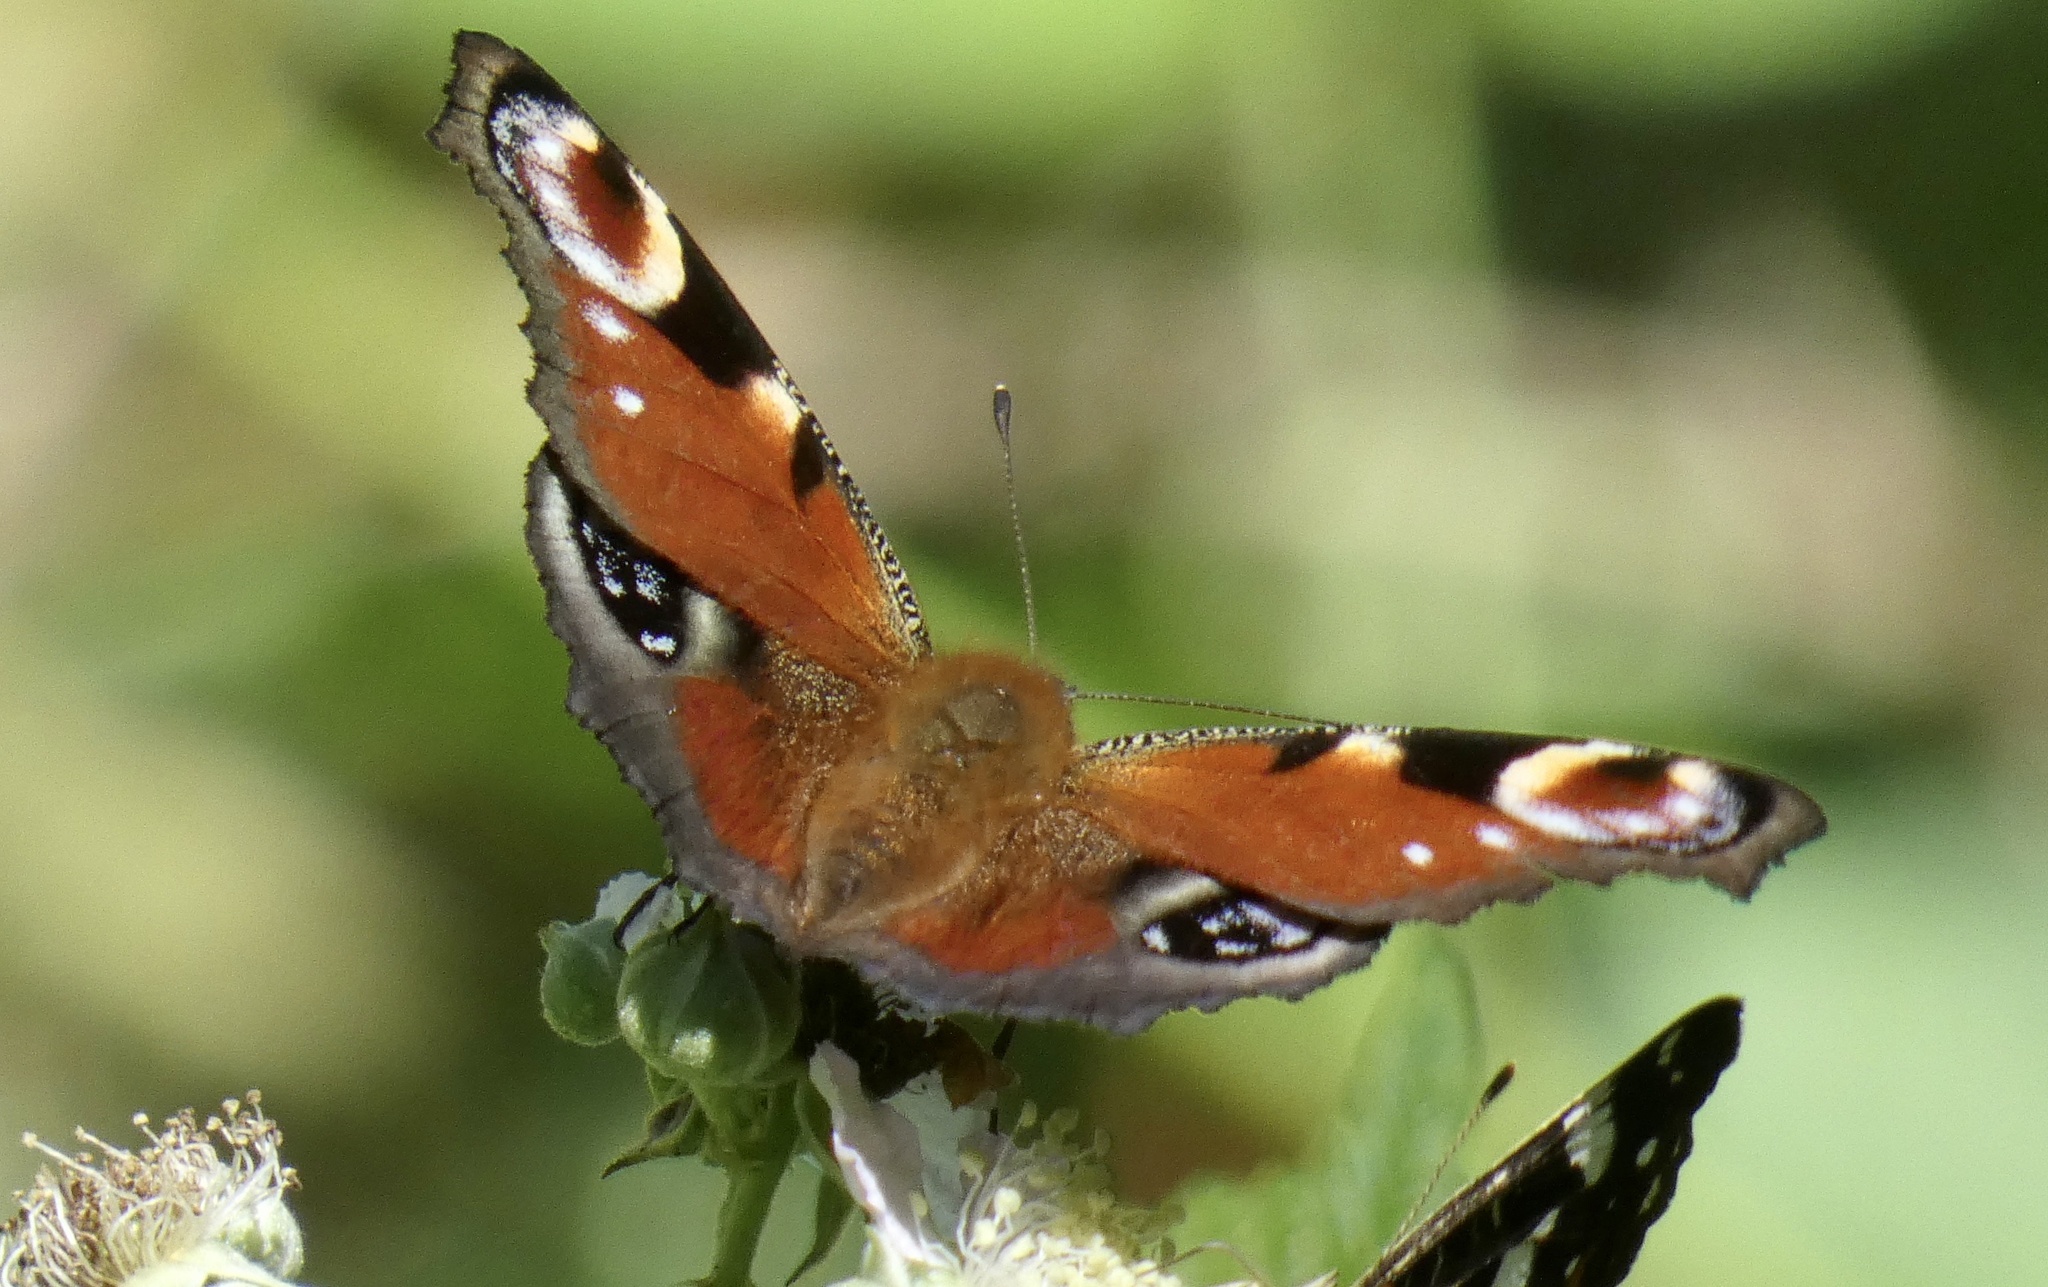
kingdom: Animalia
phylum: Arthropoda
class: Insecta
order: Lepidoptera
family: Nymphalidae
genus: Aglais
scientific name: Aglais io
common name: Peacock
